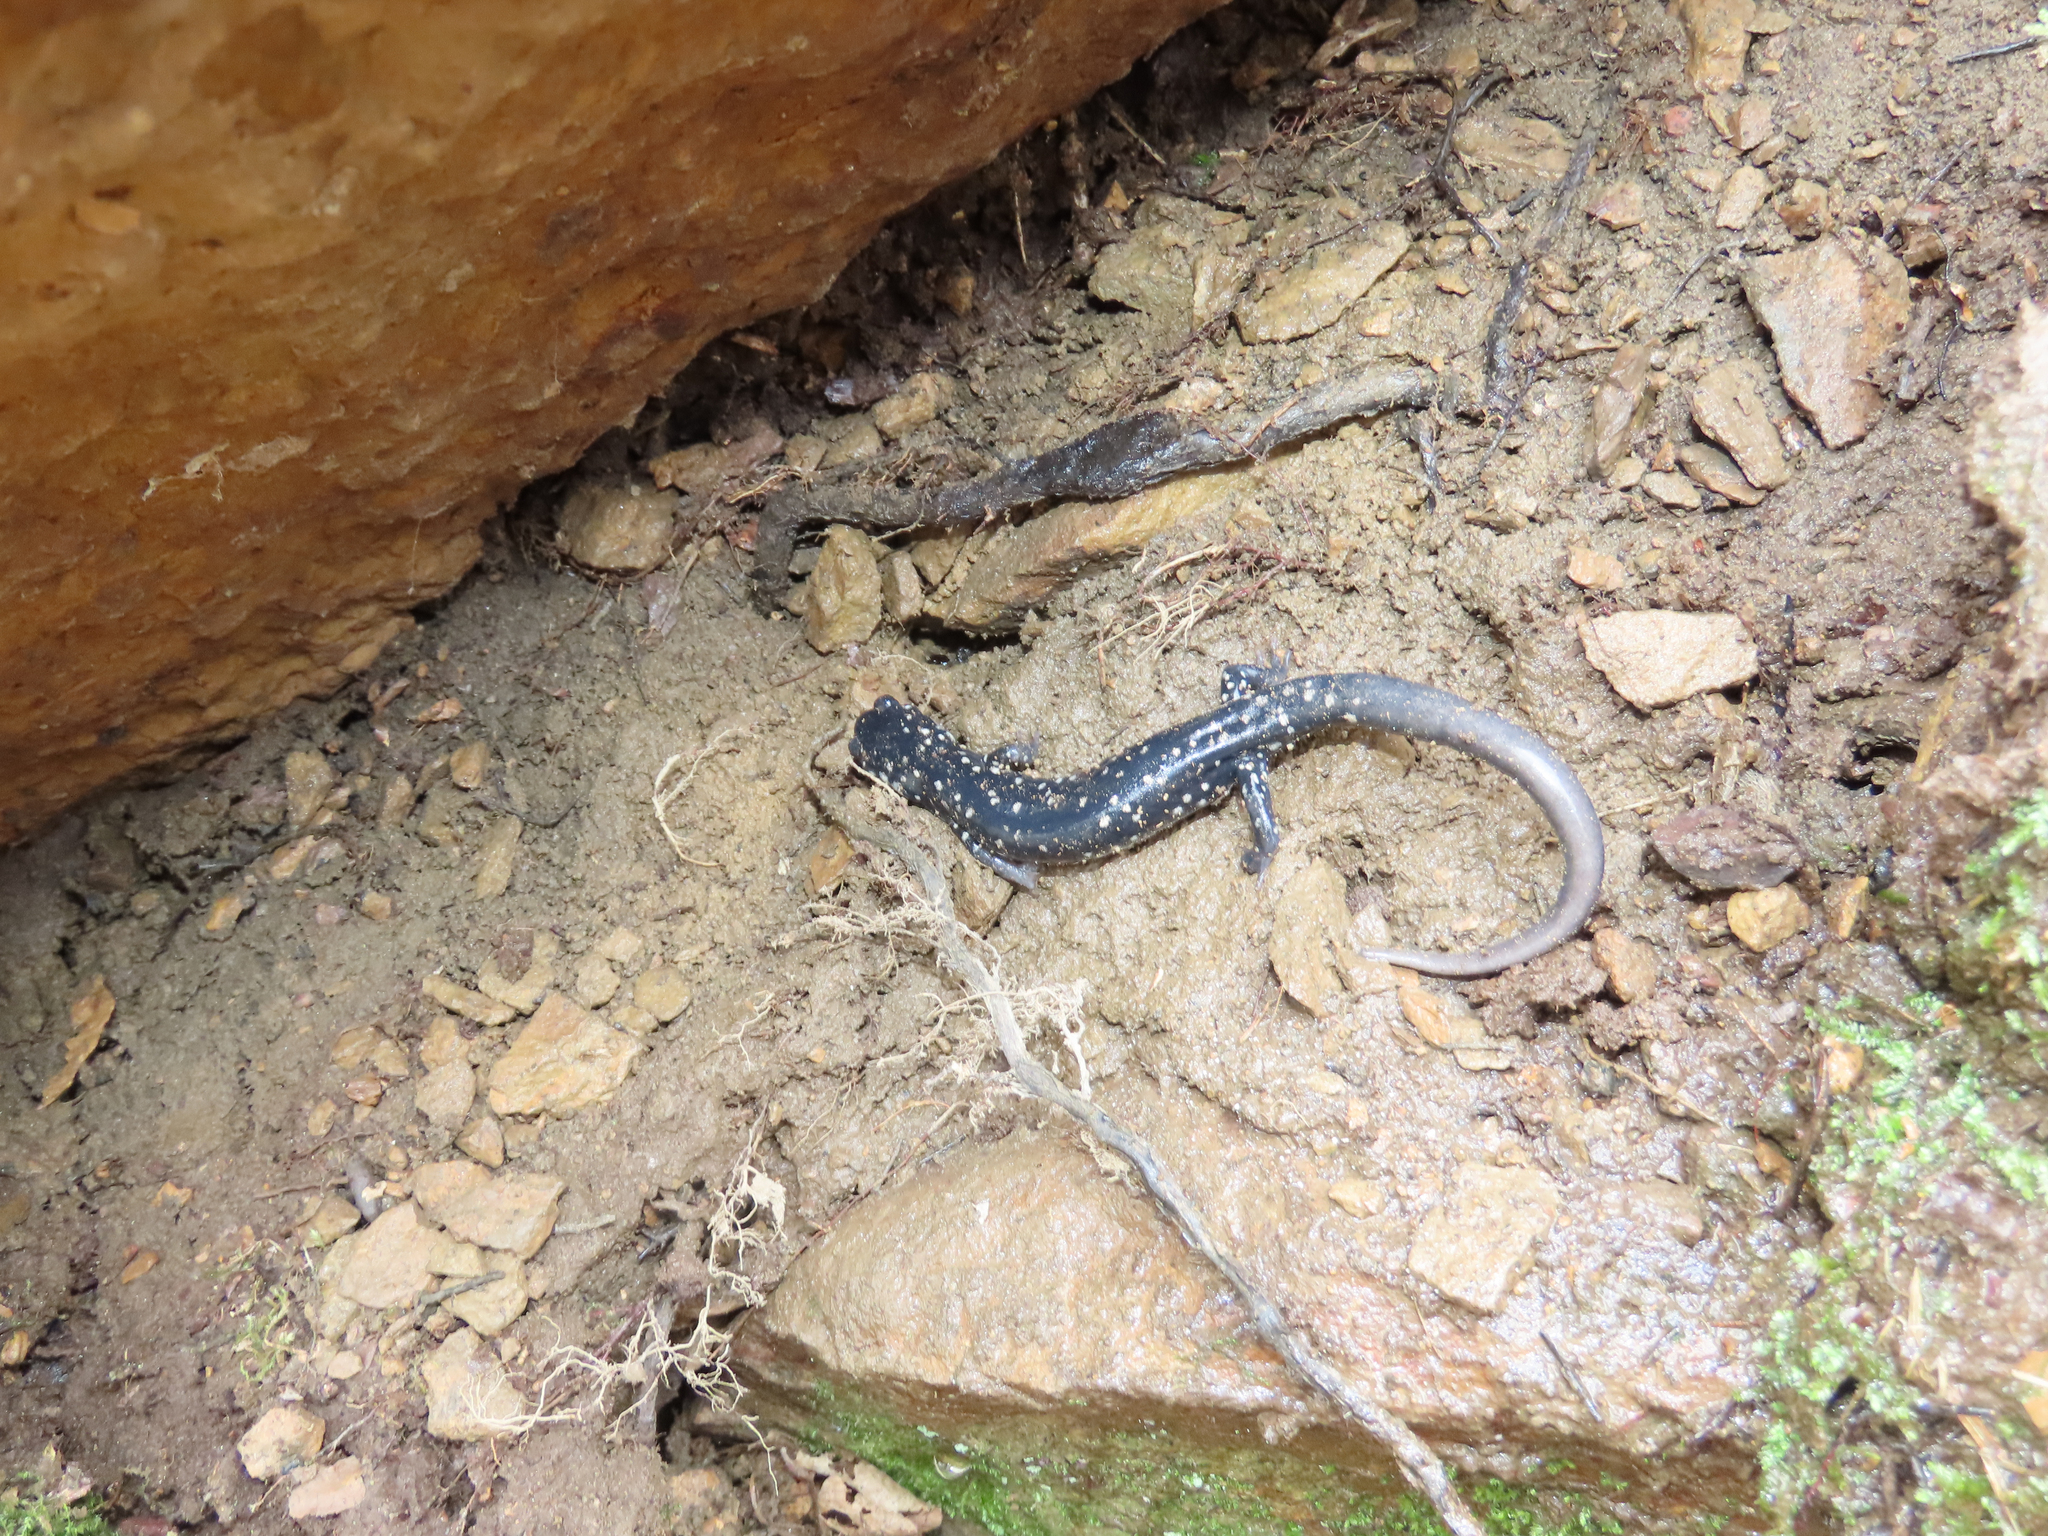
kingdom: Animalia
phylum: Chordata
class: Amphibia
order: Caudata
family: Plethodontidae
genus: Plethodon
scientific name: Plethodon glutinosus
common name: Northern slimy salamander
